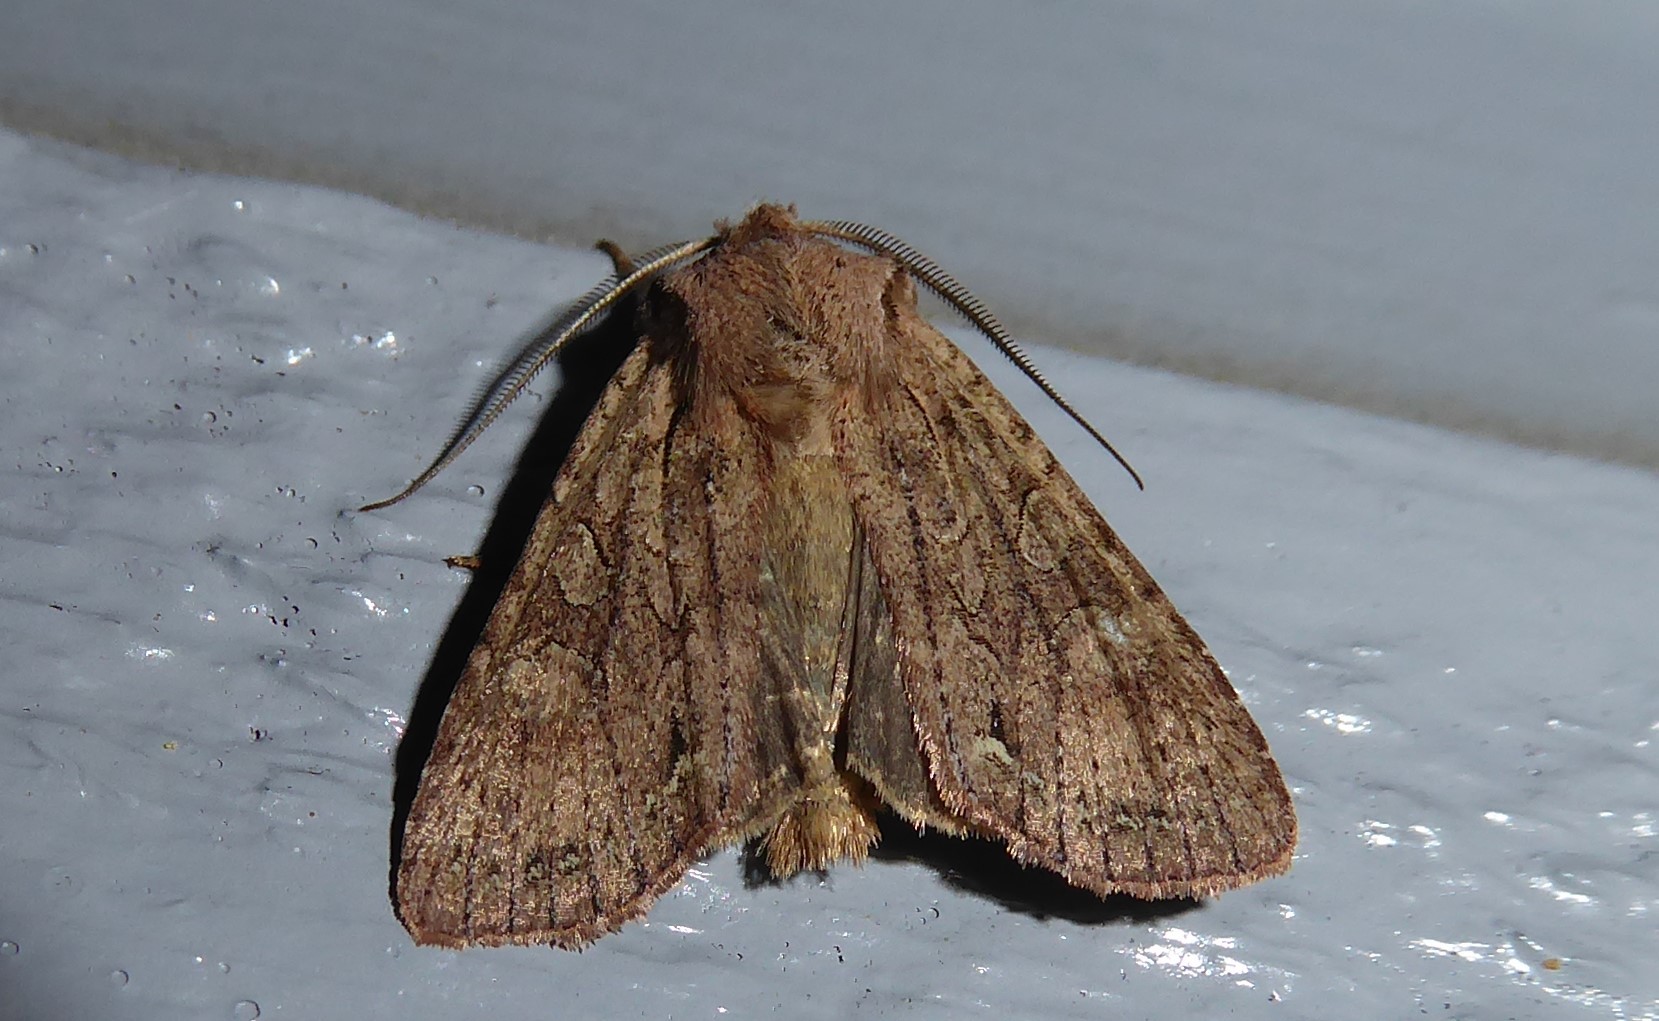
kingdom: Animalia
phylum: Arthropoda
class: Insecta
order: Lepidoptera
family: Noctuidae
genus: Ichneutica
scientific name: Ichneutica
